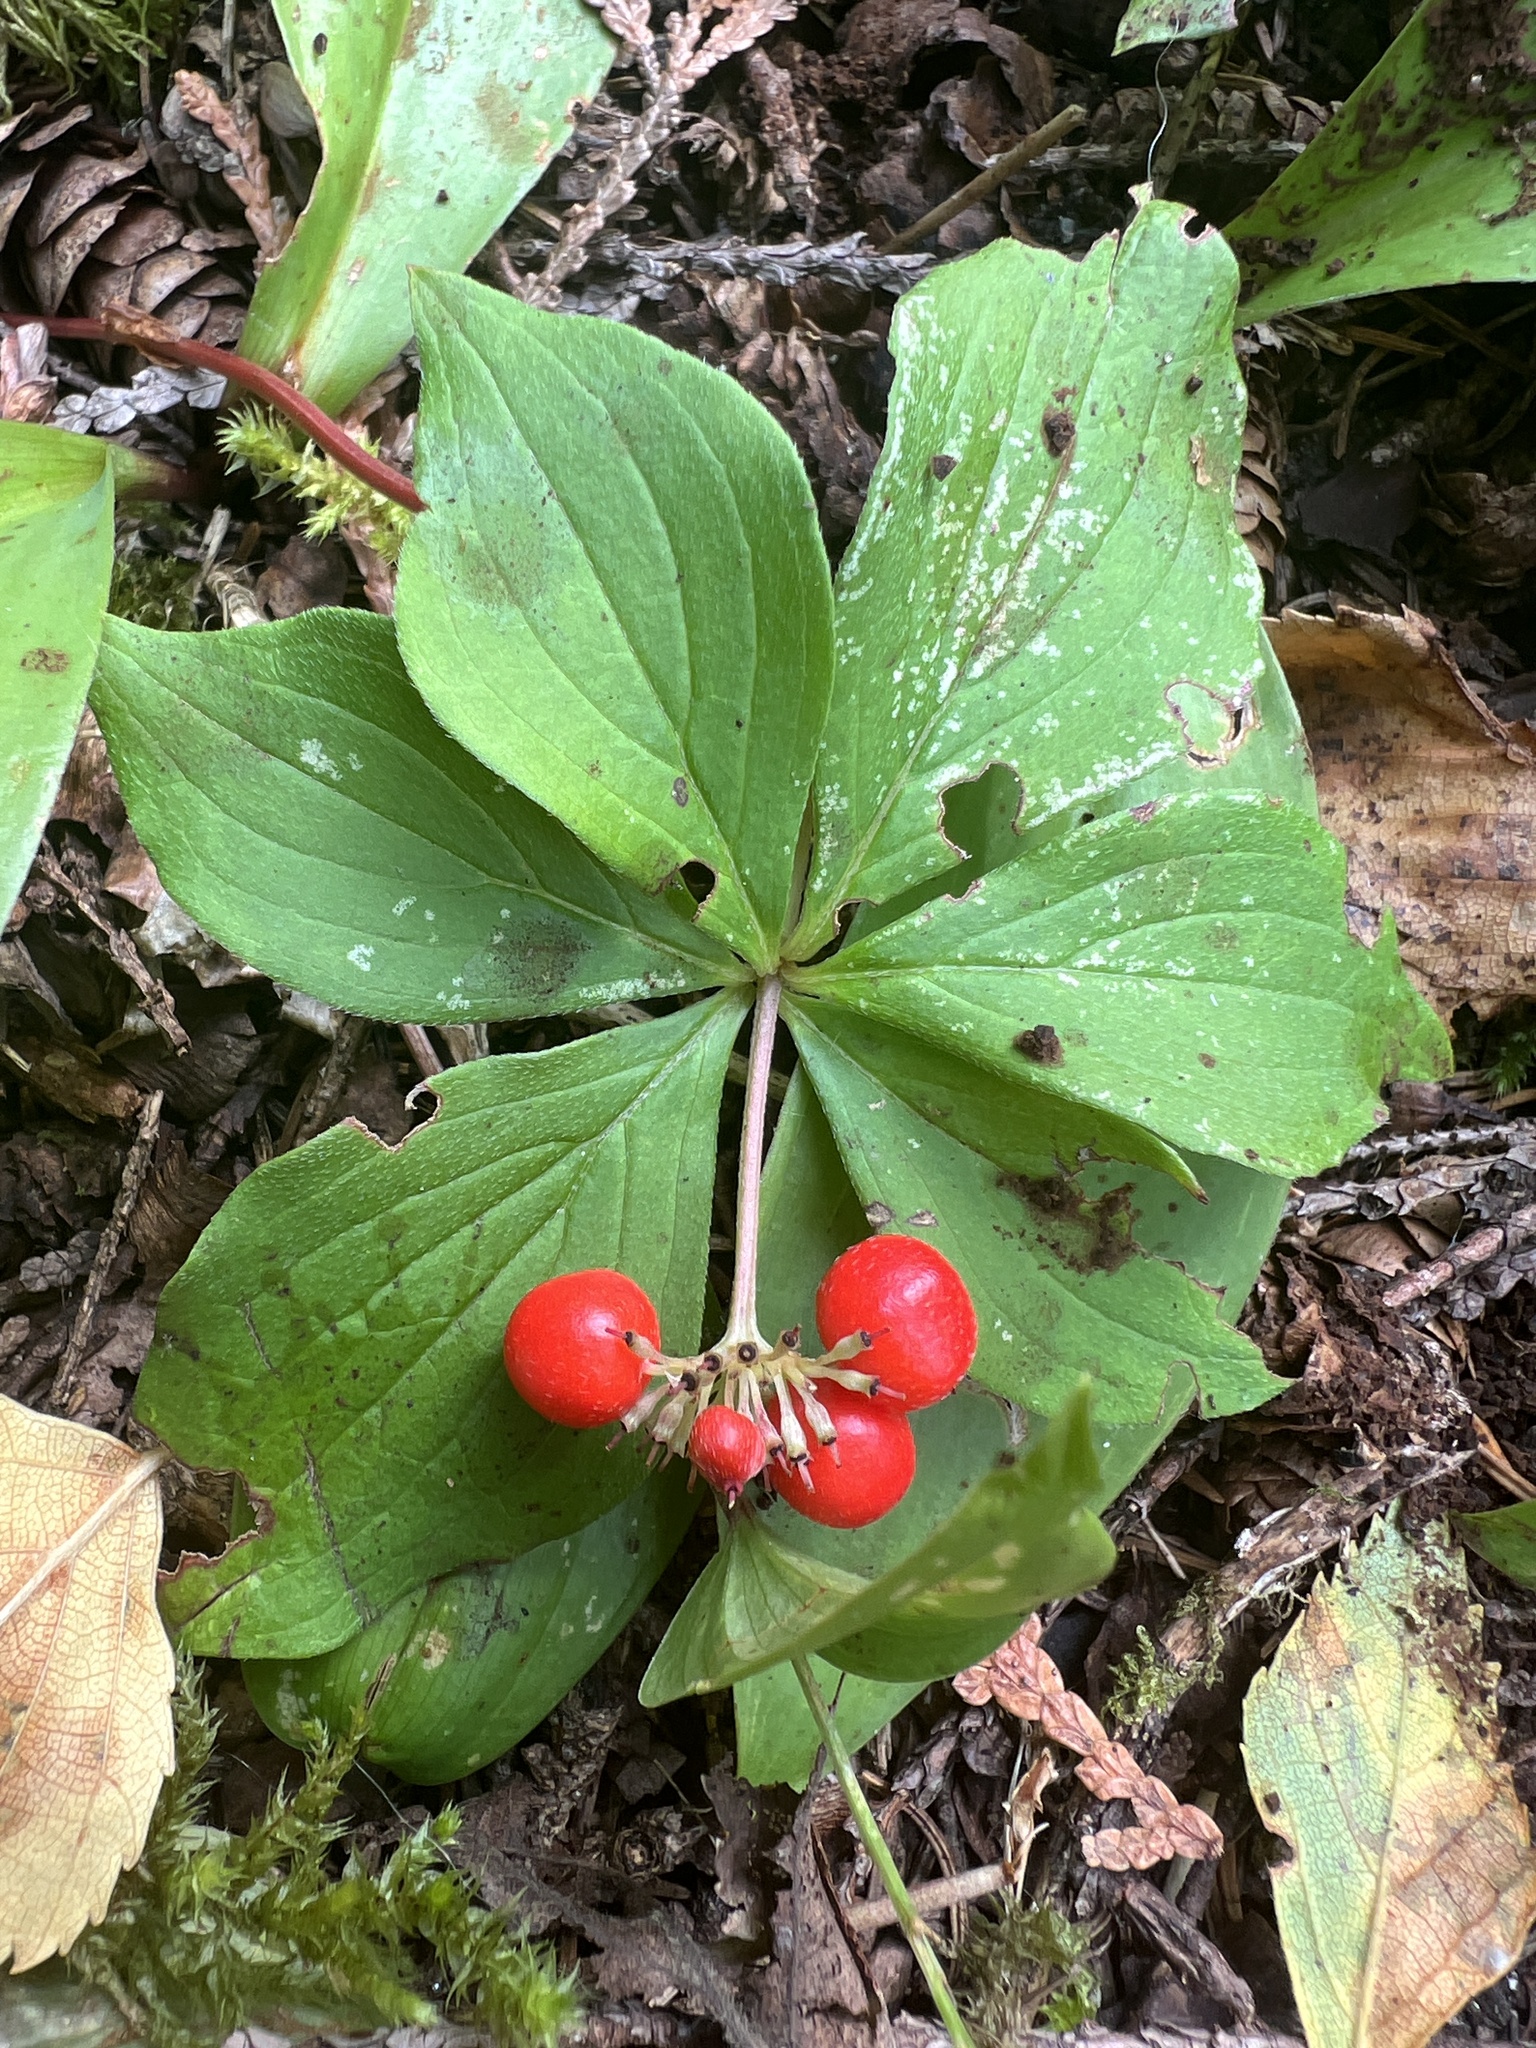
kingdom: Plantae
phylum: Tracheophyta
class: Magnoliopsida
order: Cornales
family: Cornaceae
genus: Cornus
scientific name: Cornus canadensis
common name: Creeping dogwood
